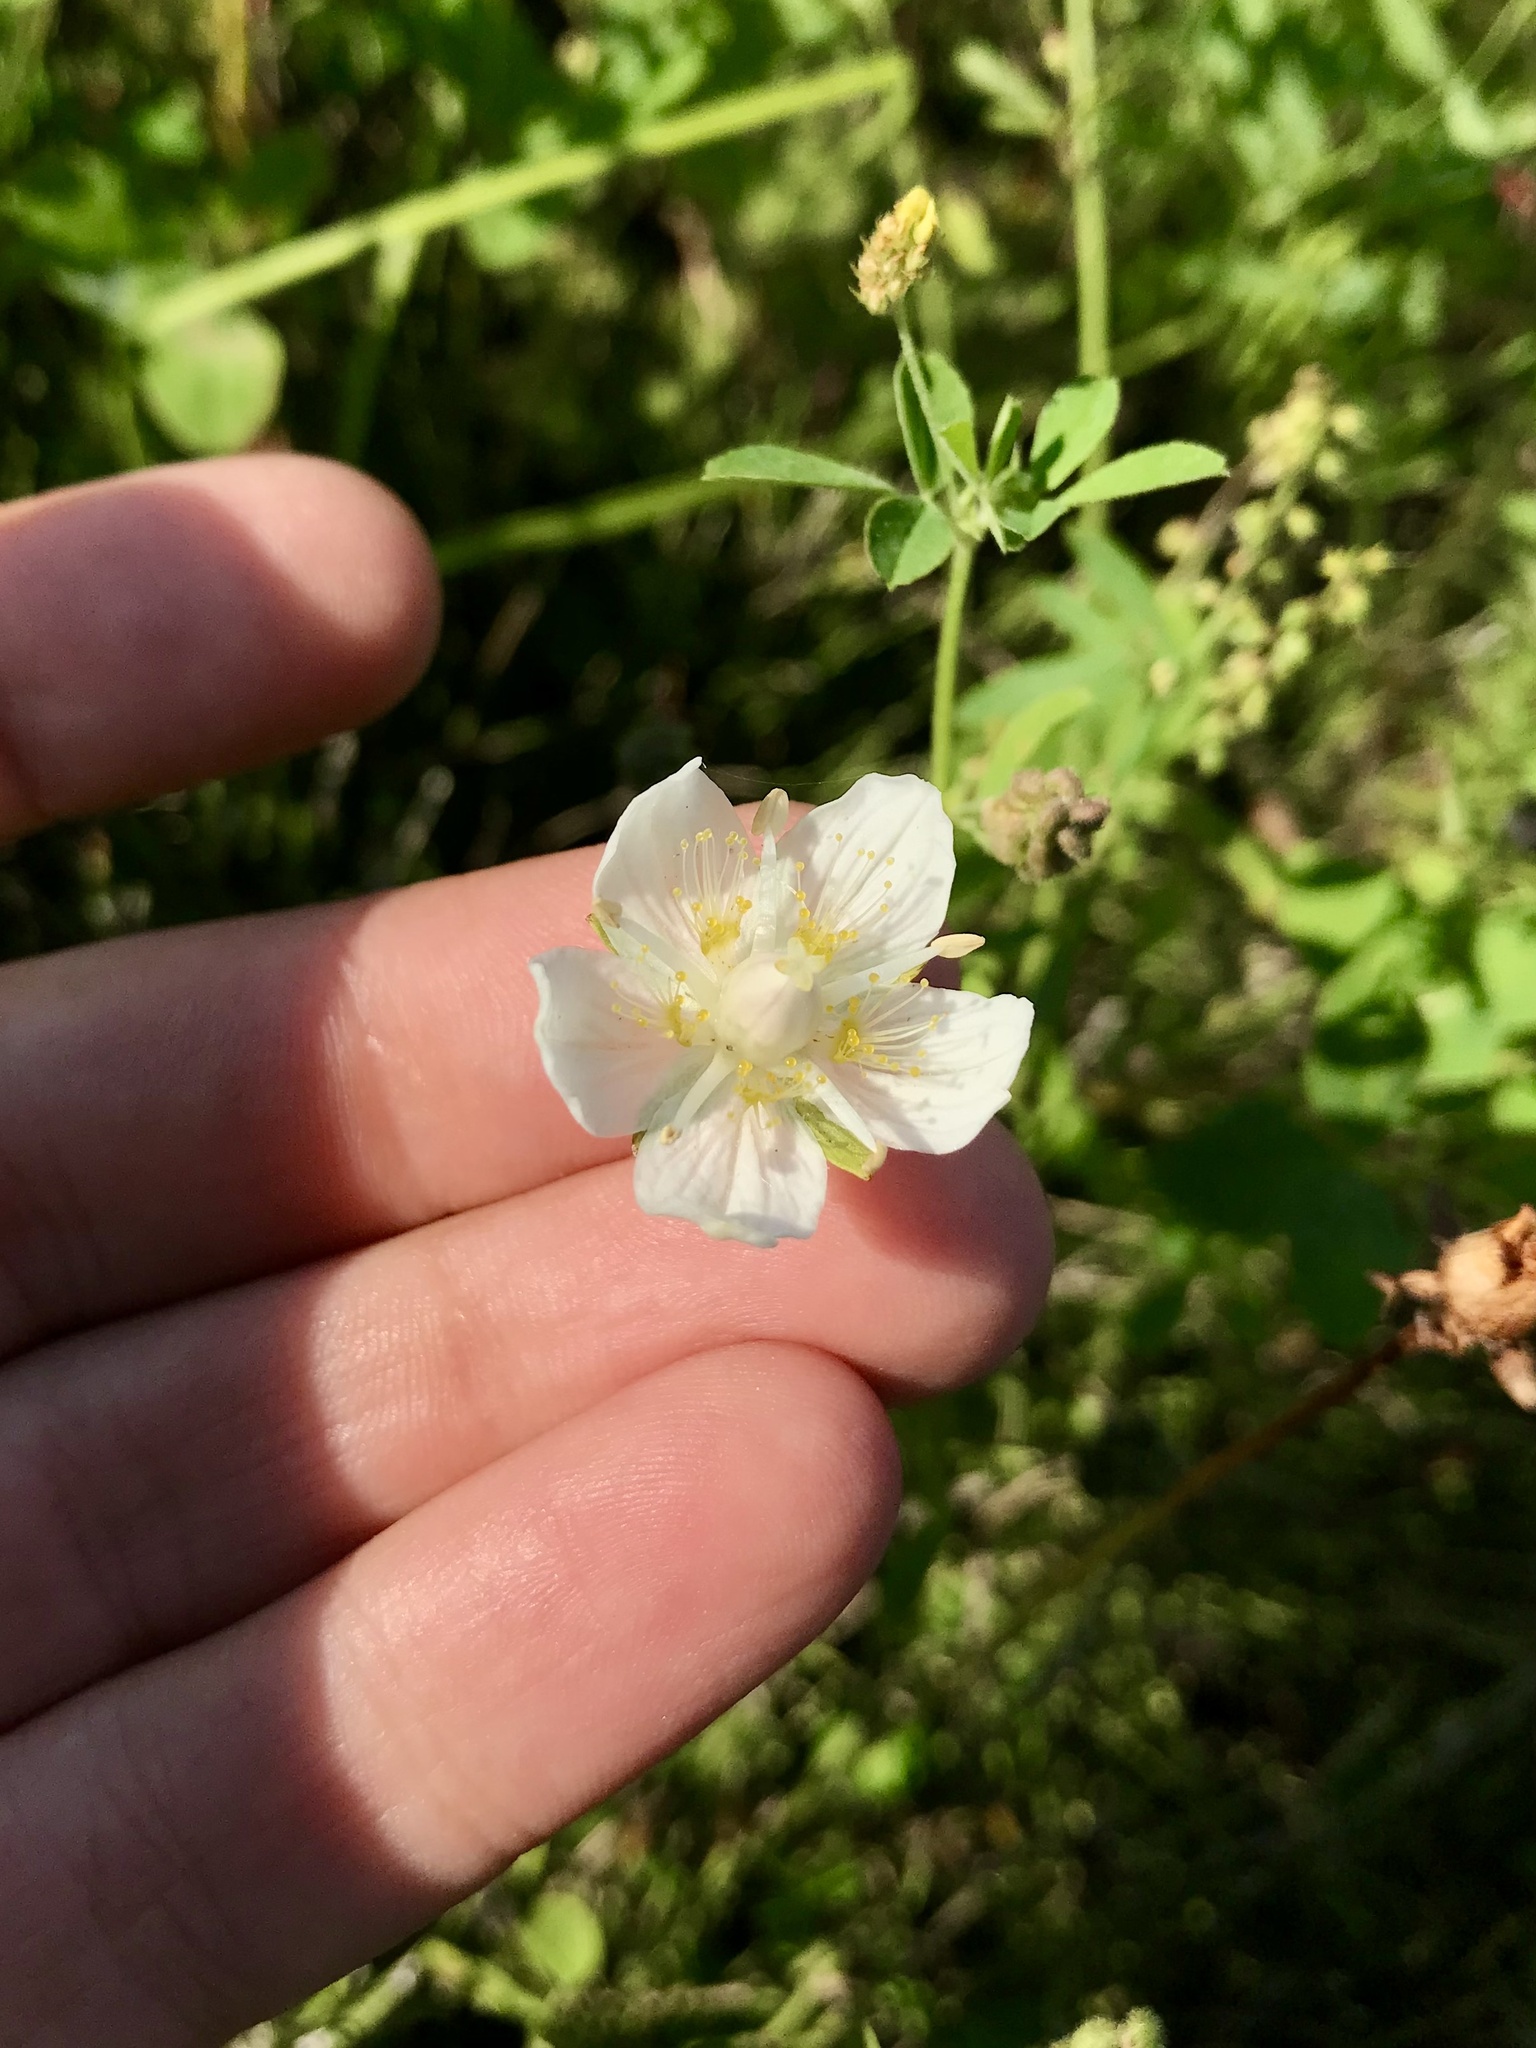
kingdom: Plantae
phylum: Tracheophyta
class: Magnoliopsida
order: Celastrales
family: Parnassiaceae
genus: Parnassia
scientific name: Parnassia palustris
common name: Grass-of-parnassus
